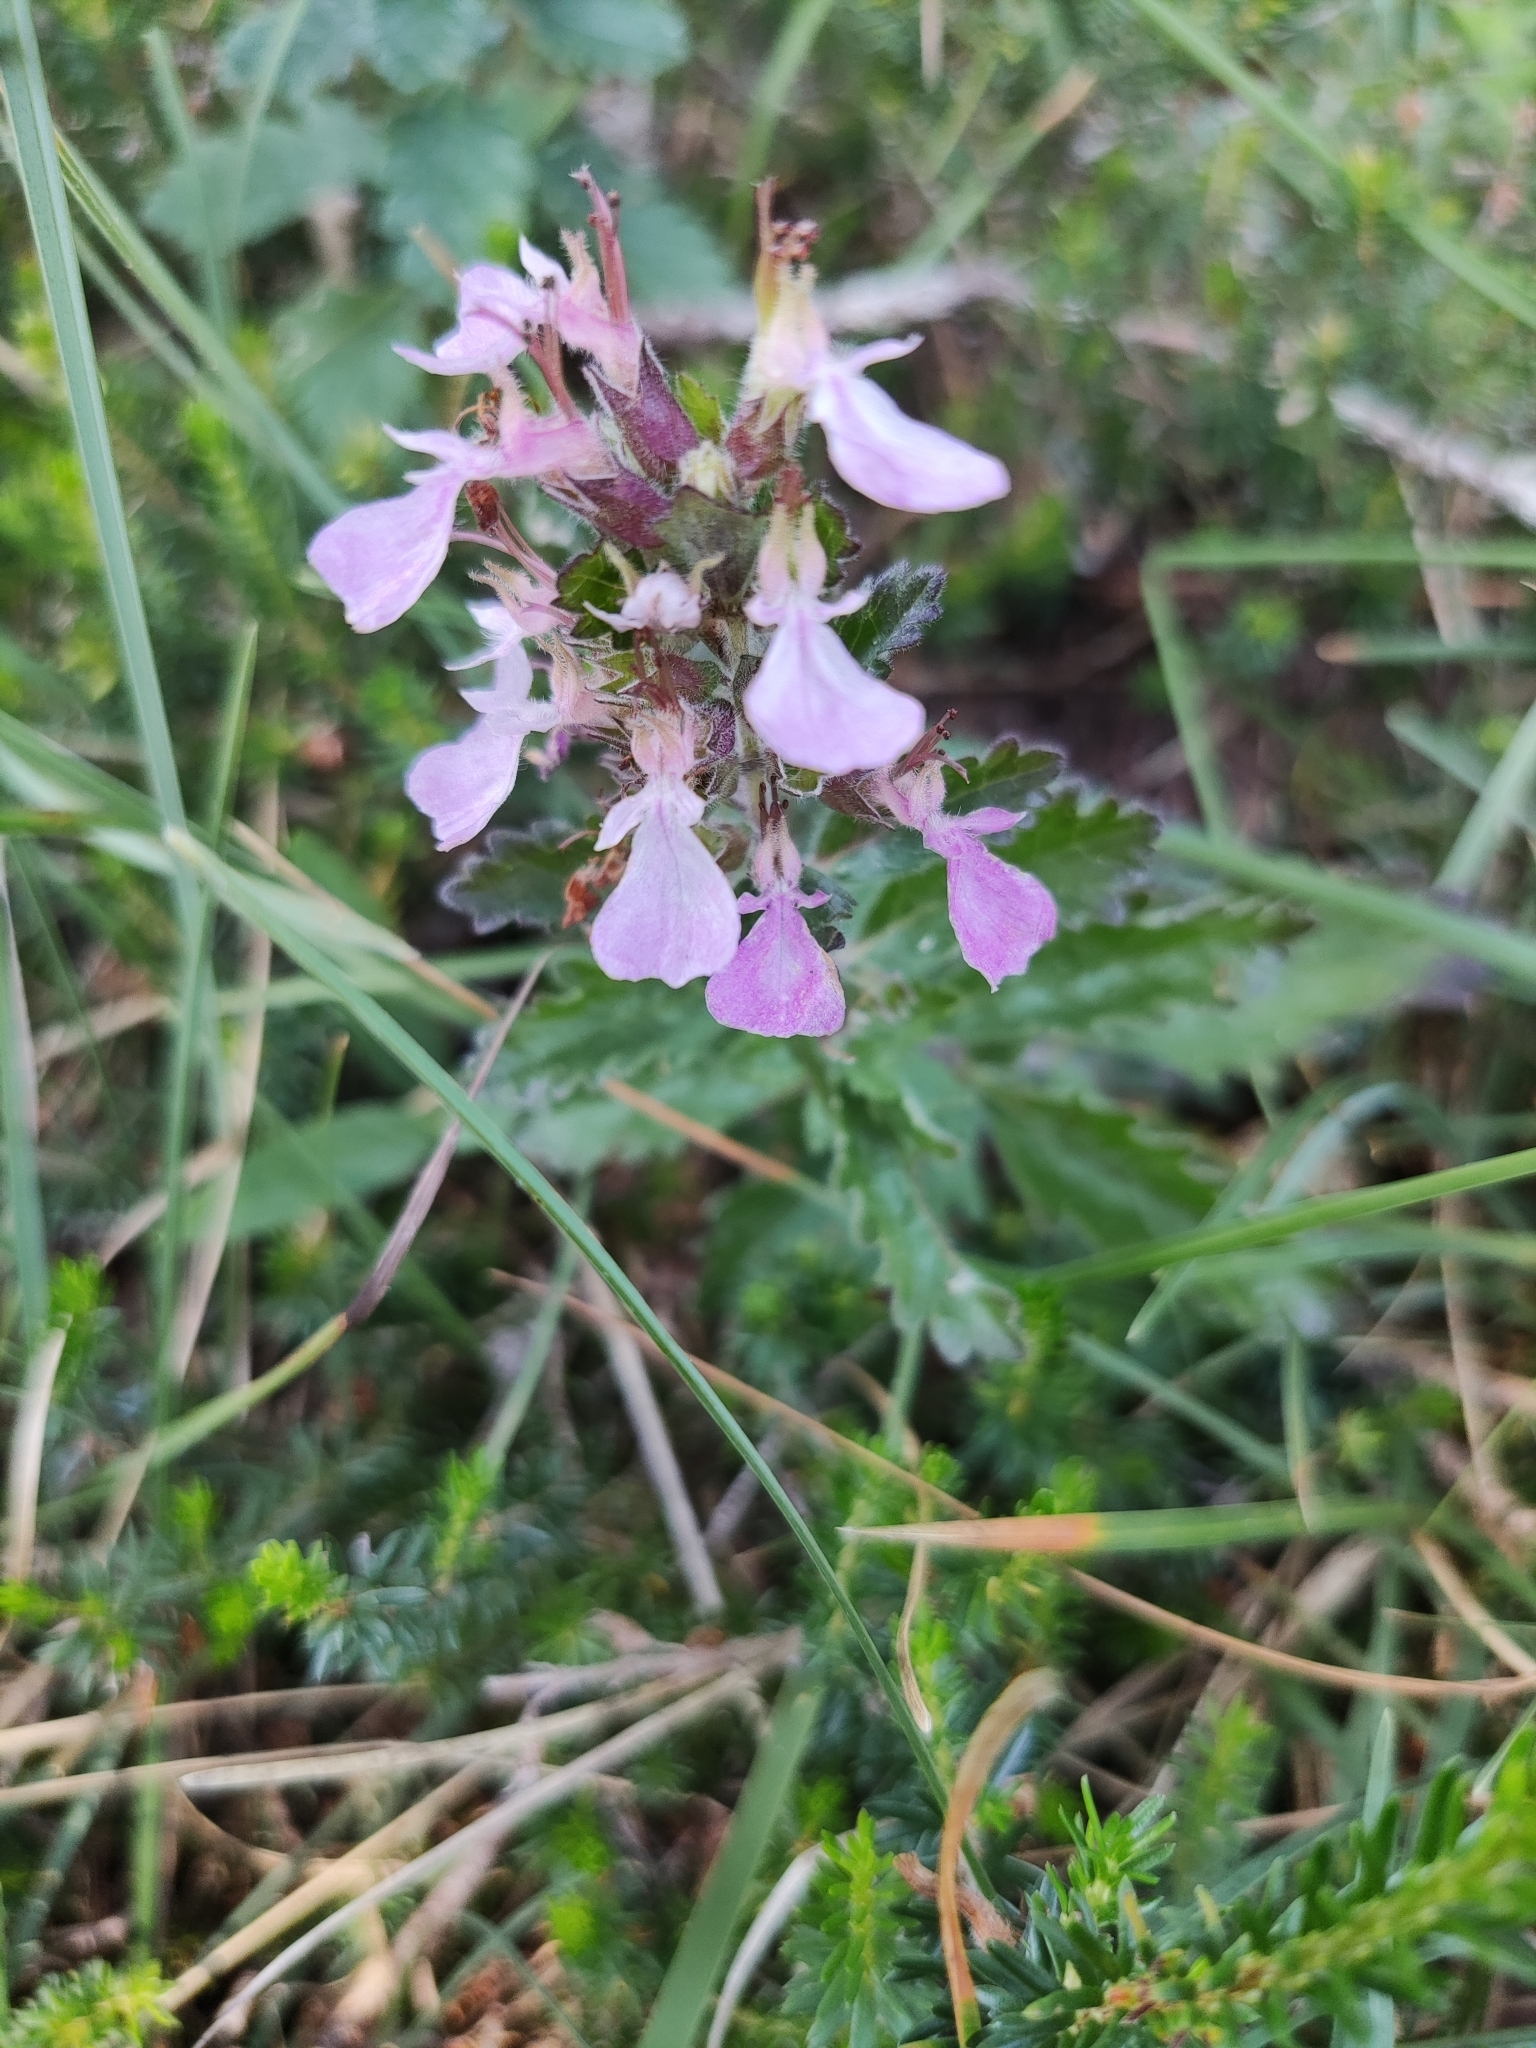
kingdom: Plantae
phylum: Tracheophyta
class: Magnoliopsida
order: Lamiales
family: Lamiaceae
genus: Teucrium
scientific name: Teucrium chamaedrys
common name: Wall germander
